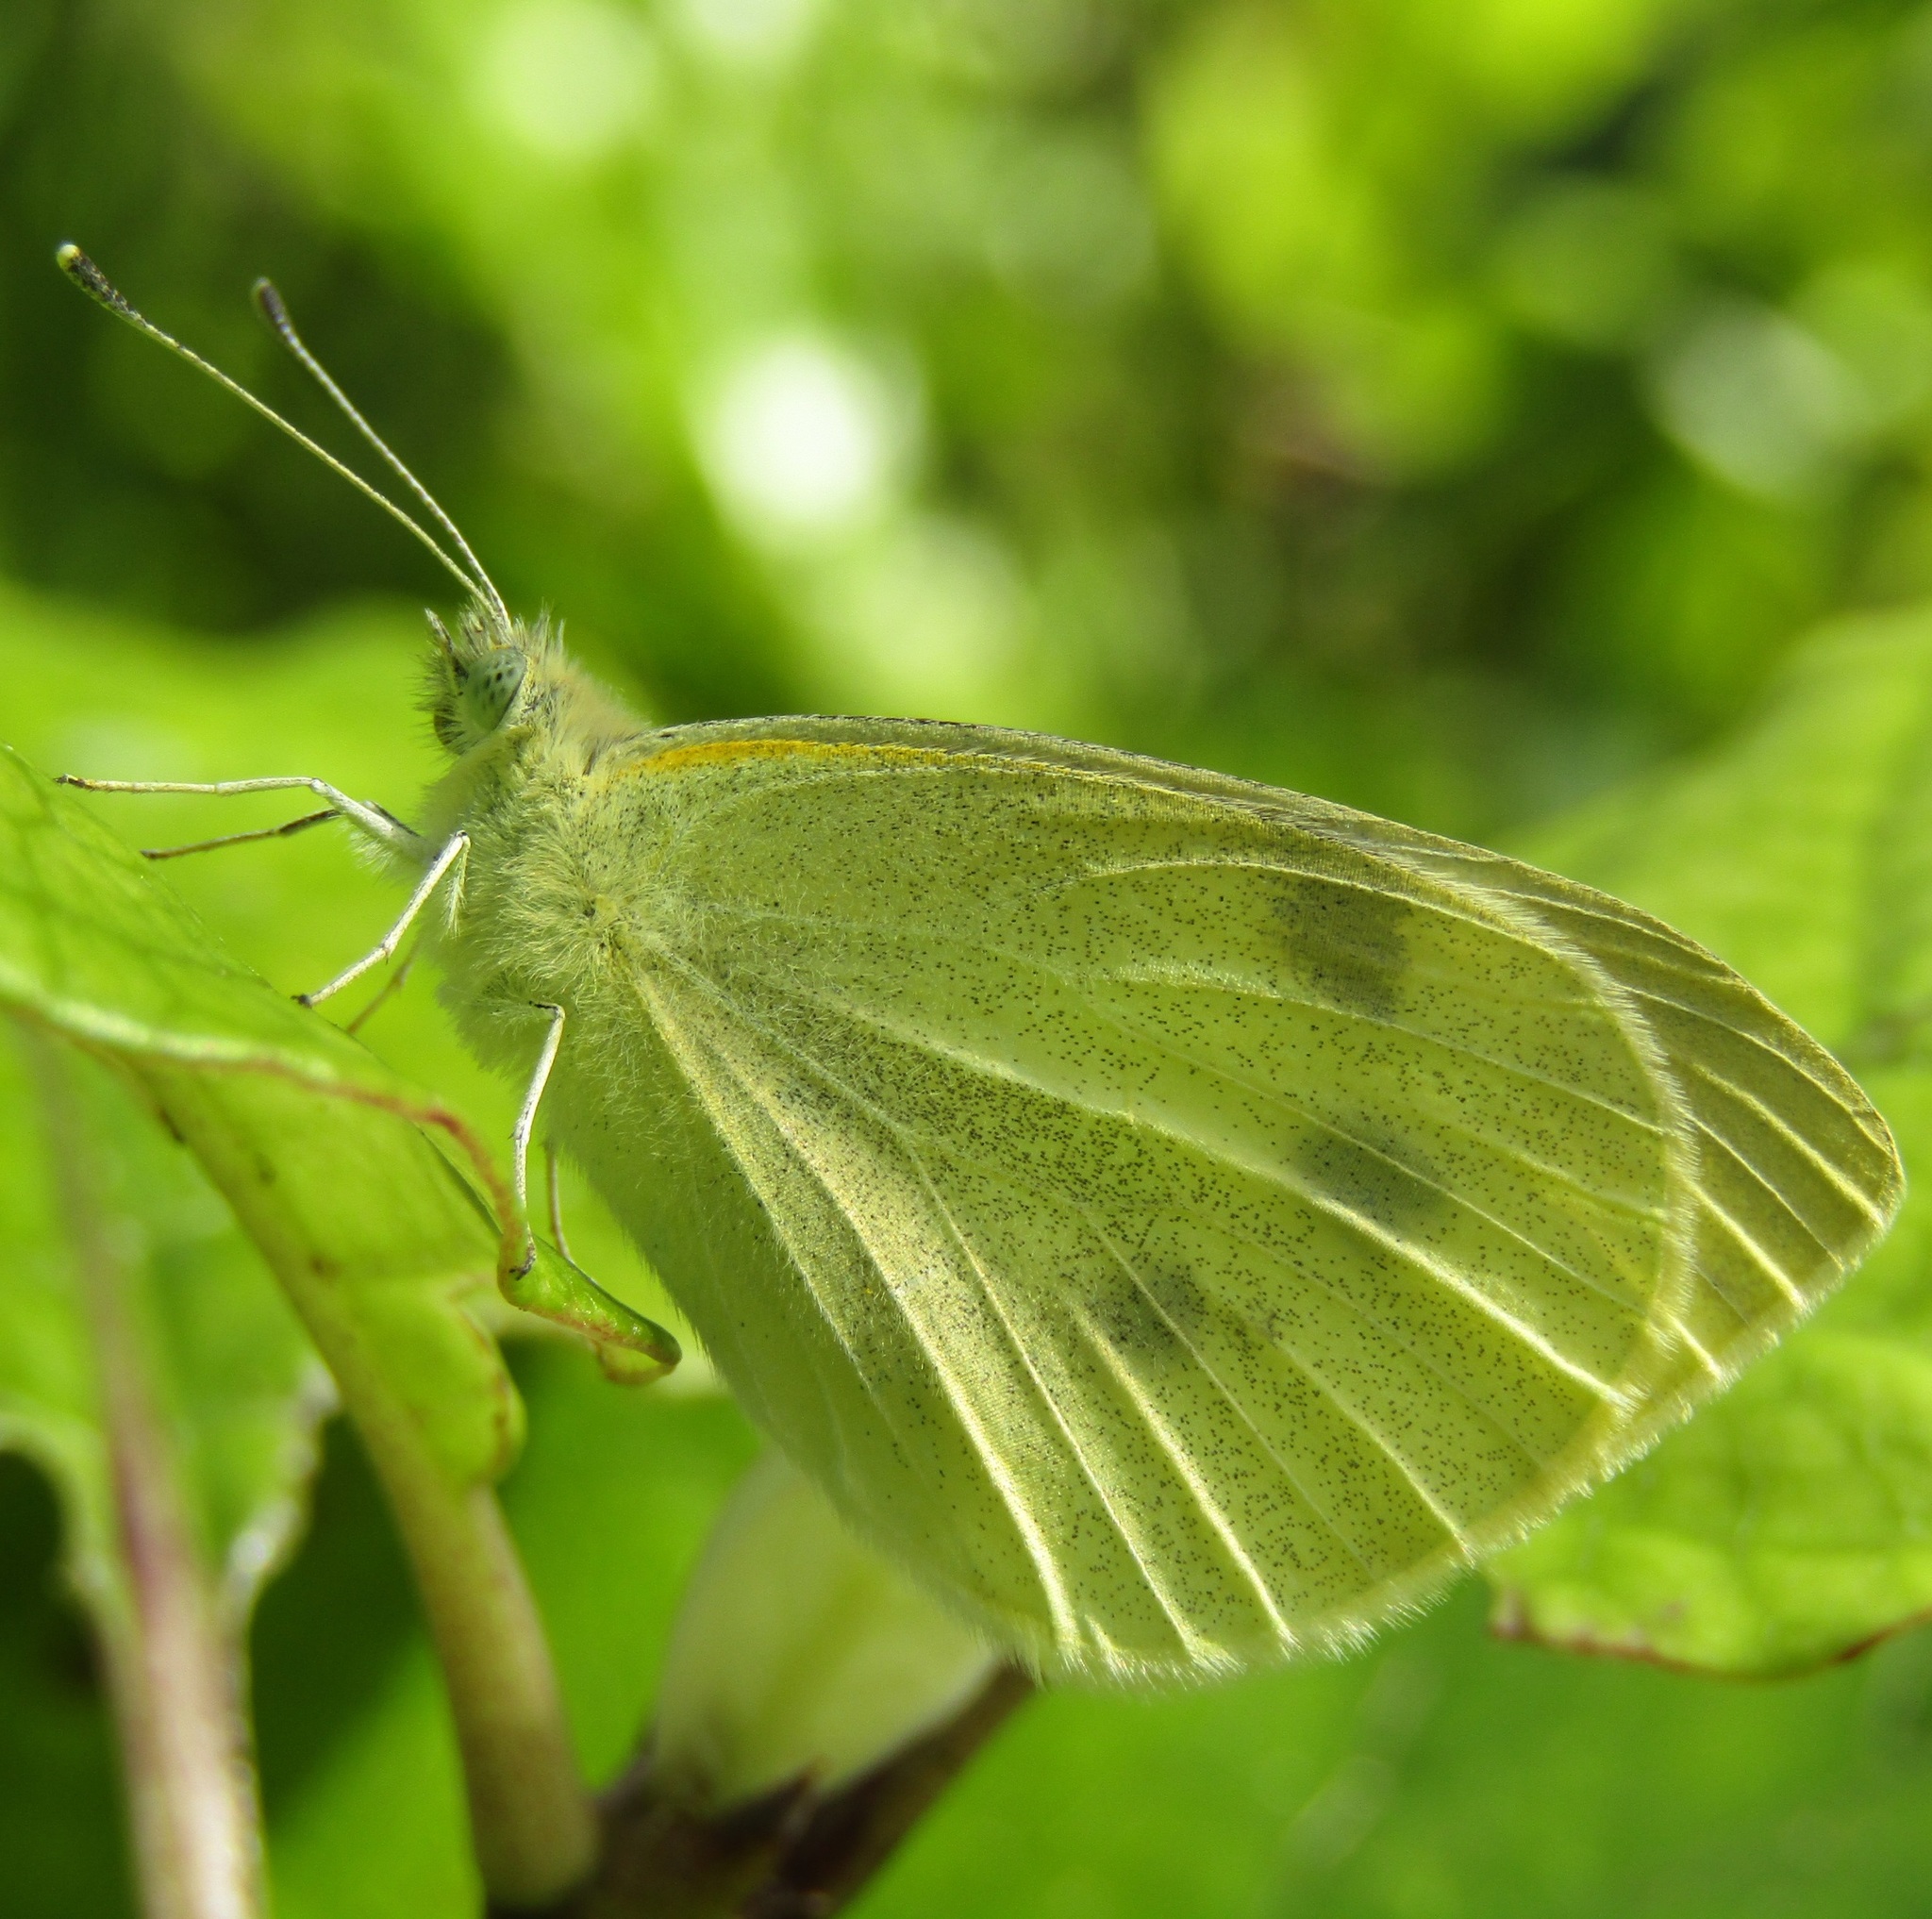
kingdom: Animalia
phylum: Arthropoda
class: Insecta
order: Lepidoptera
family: Pieridae
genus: Pieris
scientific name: Pieris rapae
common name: Small white
